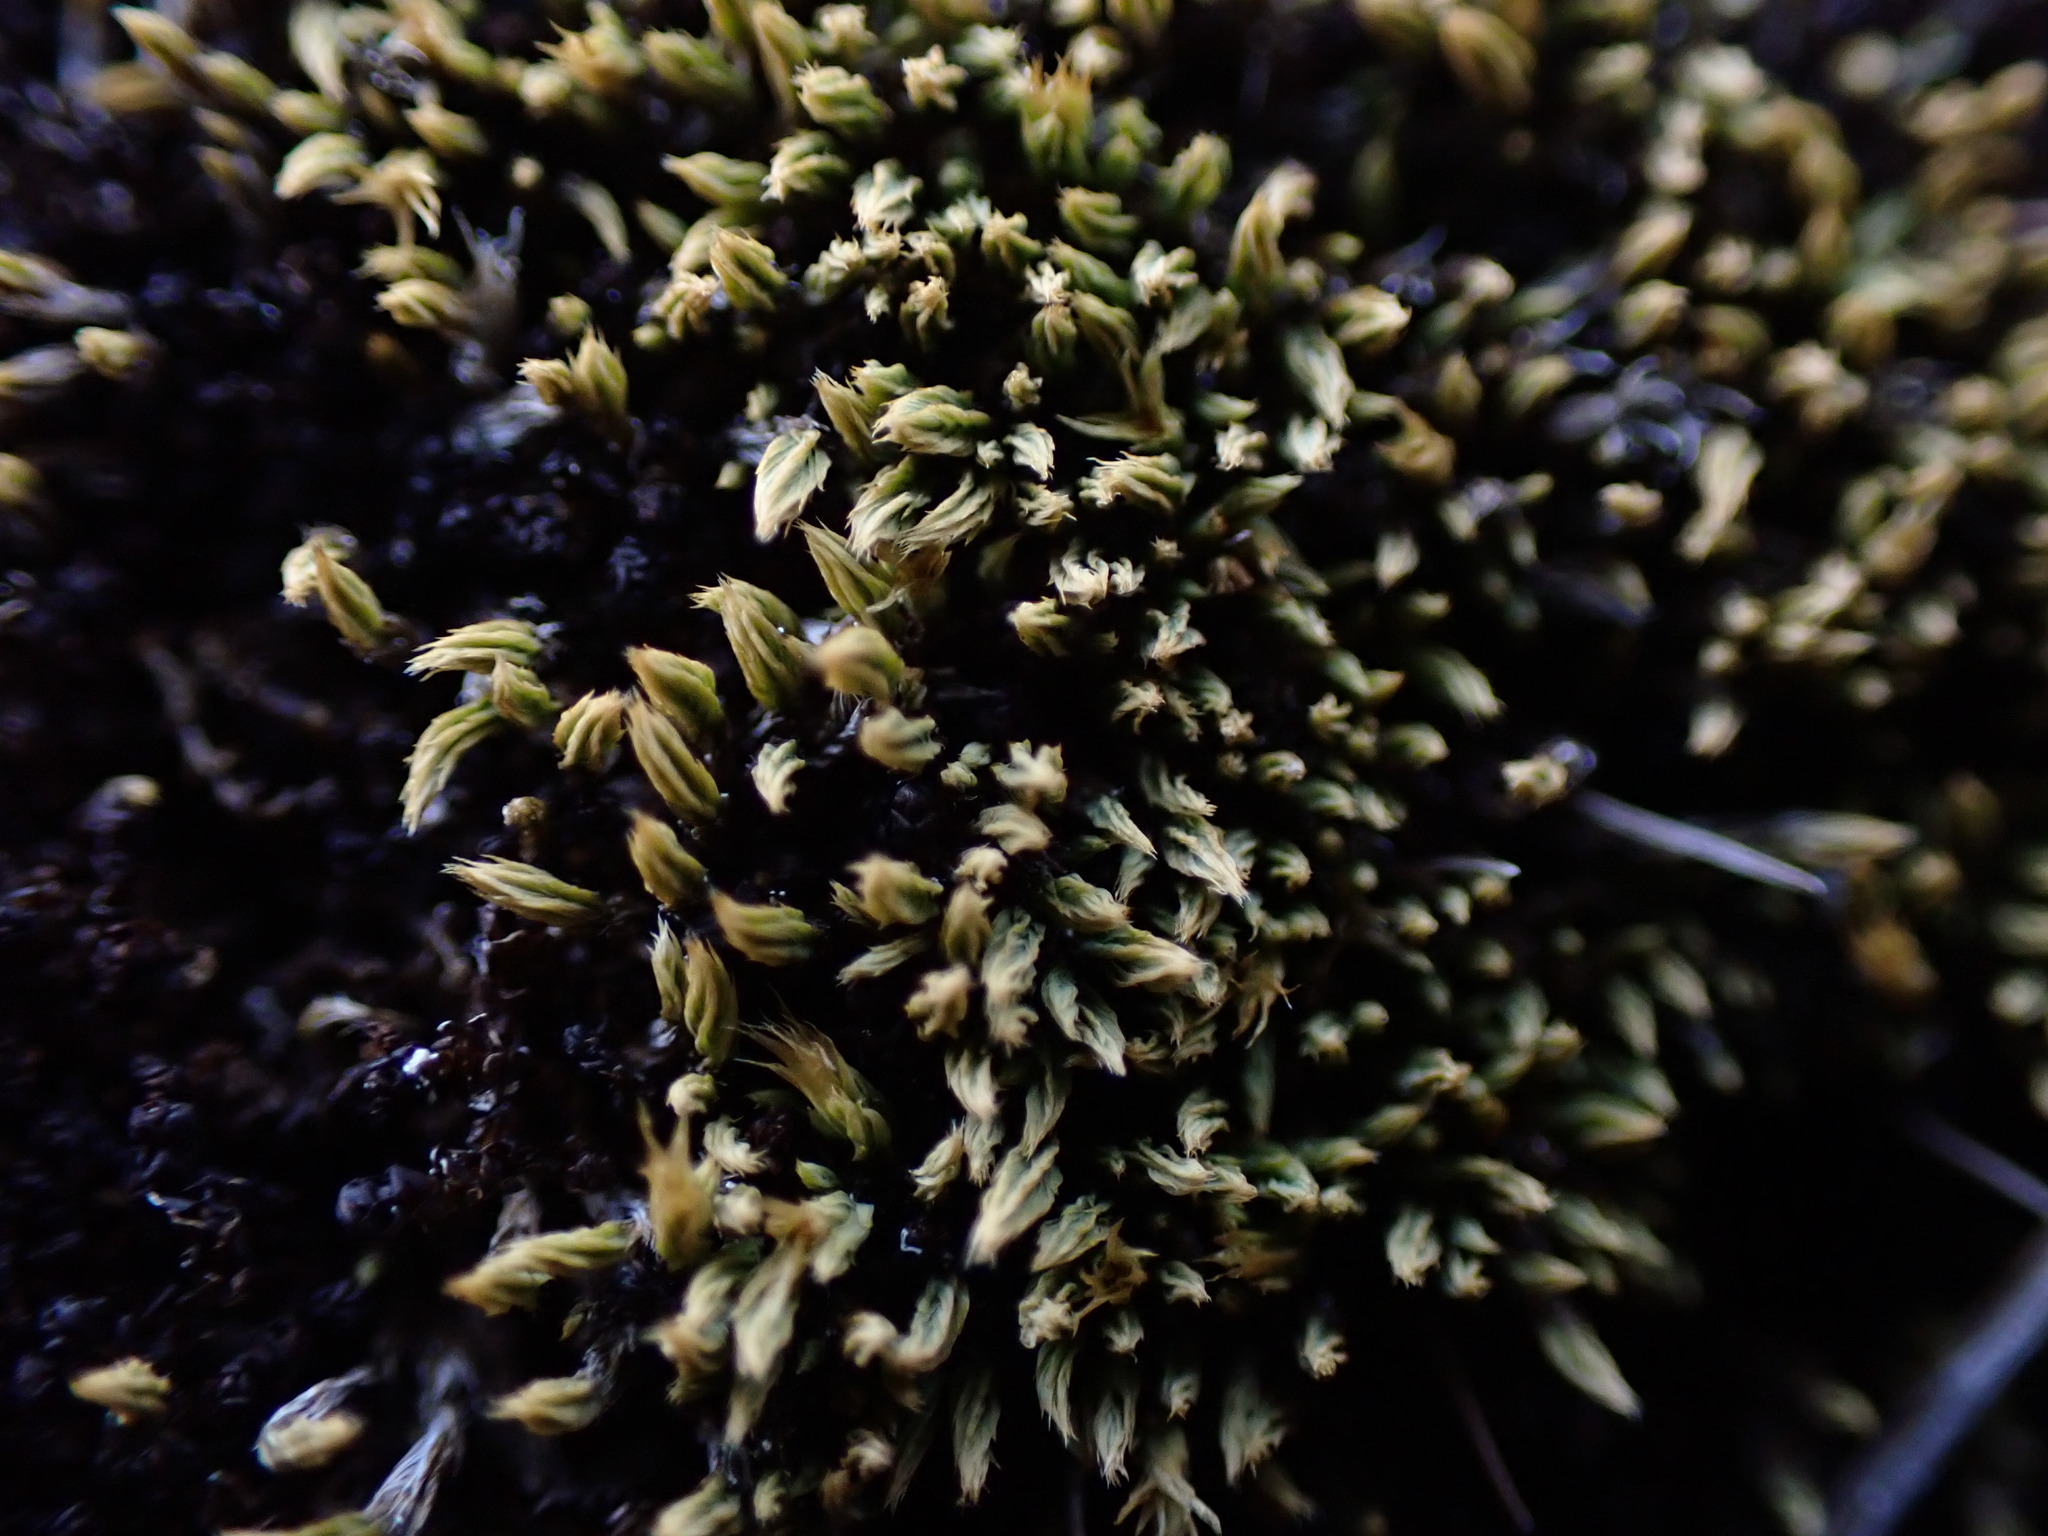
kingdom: Plantae
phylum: Bryophyta
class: Bryopsida
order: Bartramiales
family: Bartramiaceae
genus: Conostomum
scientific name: Conostomum tetragonum
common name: Helmet moss
